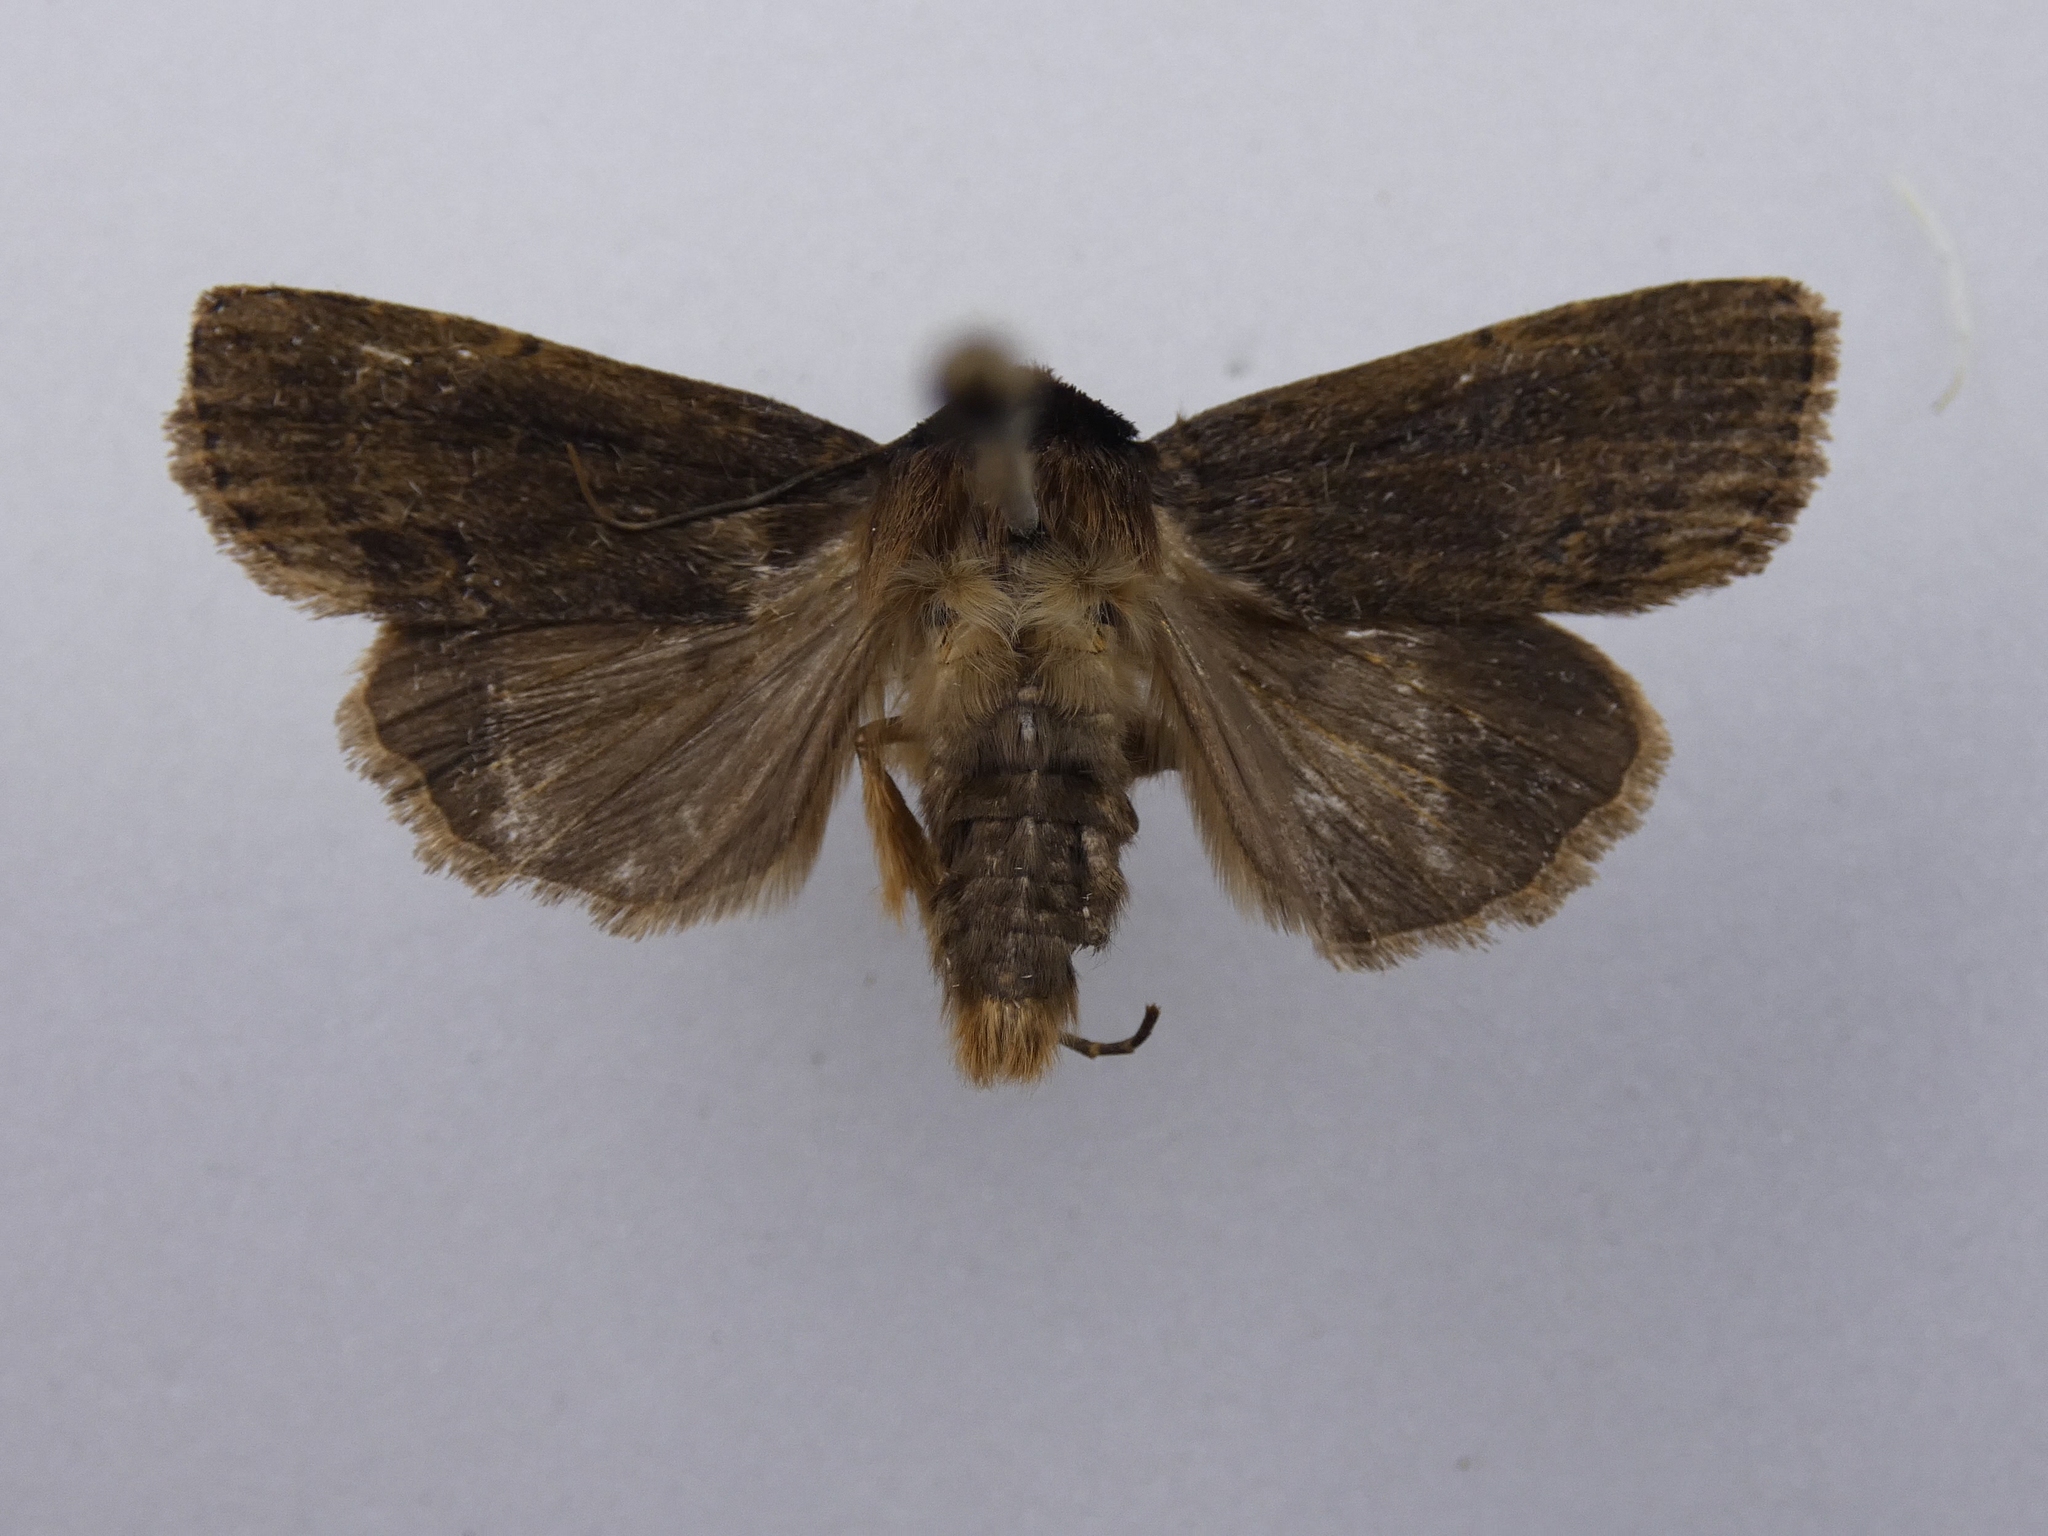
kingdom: Animalia
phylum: Arthropoda
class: Insecta
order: Lepidoptera
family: Noctuidae
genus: Bityla
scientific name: Bityla defigurata
